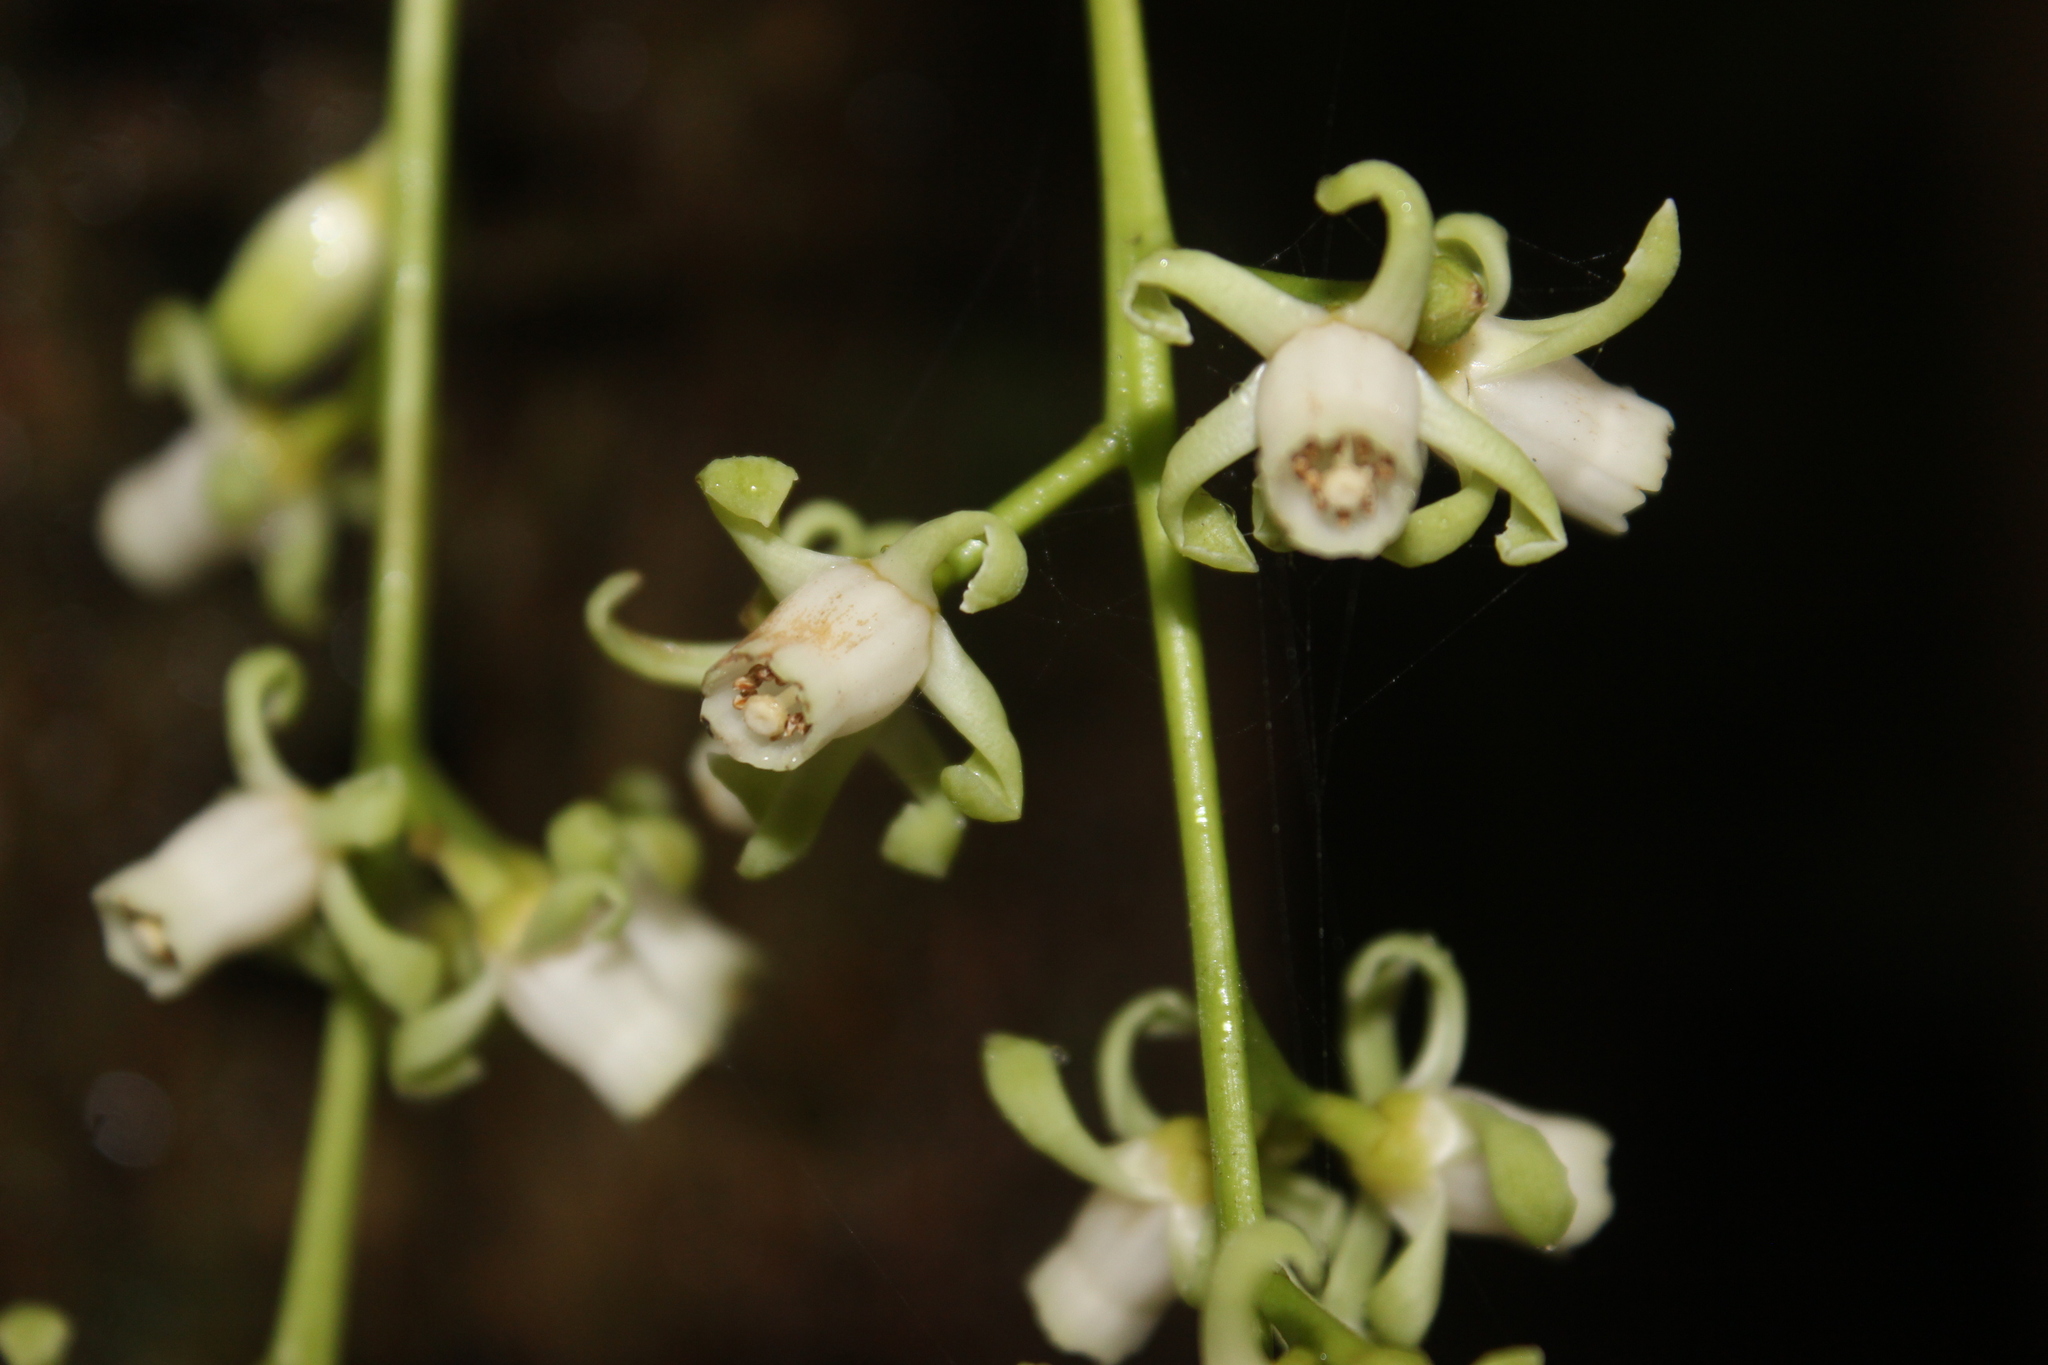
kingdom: Plantae
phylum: Tracheophyta
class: Magnoliopsida
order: Sapindales
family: Meliaceae
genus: Didymocheton
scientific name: Didymocheton spectabilis
